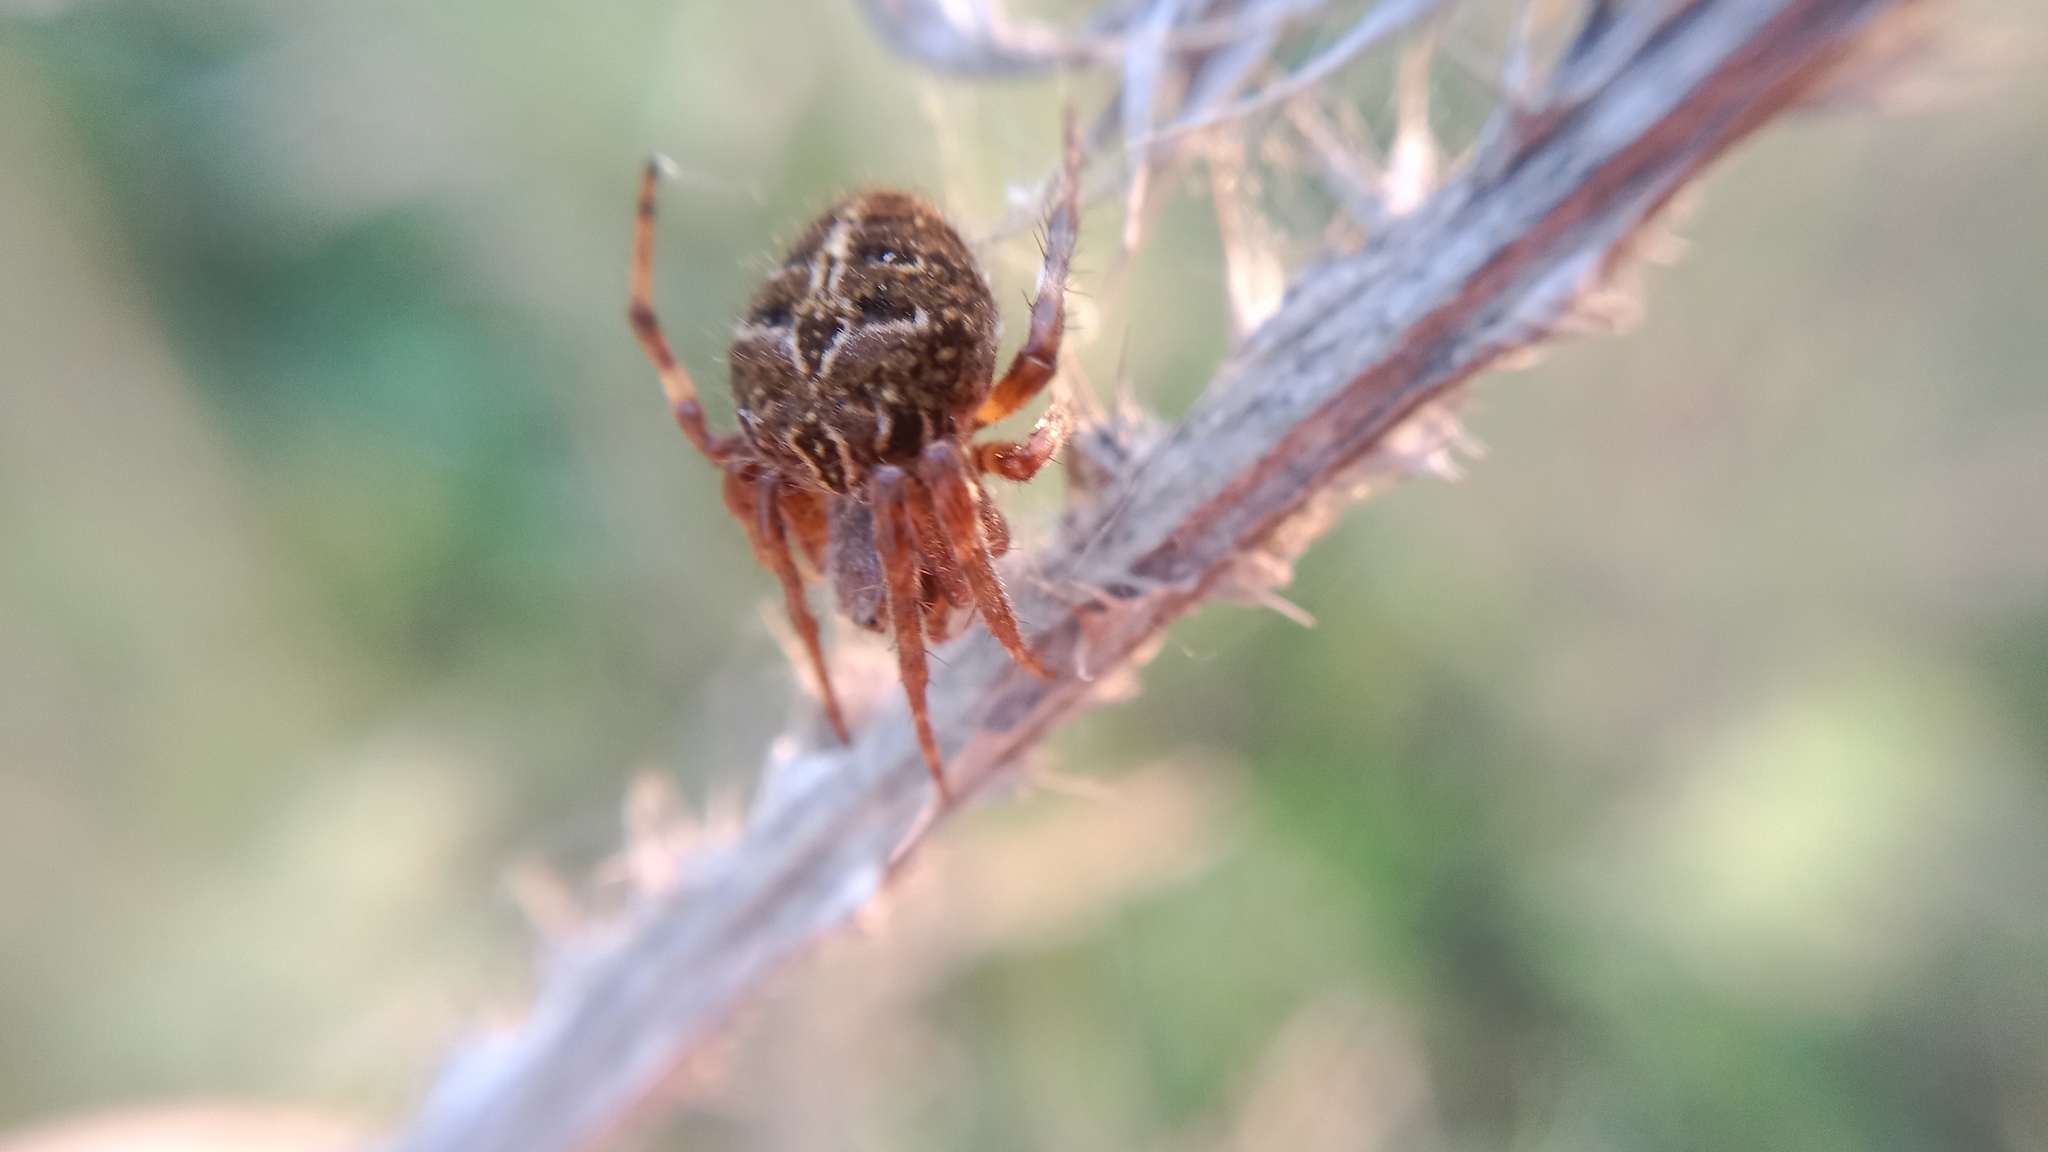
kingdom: Animalia
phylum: Arthropoda
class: Arachnida
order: Araneae
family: Araneidae
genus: Agalenatea
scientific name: Agalenatea redii
